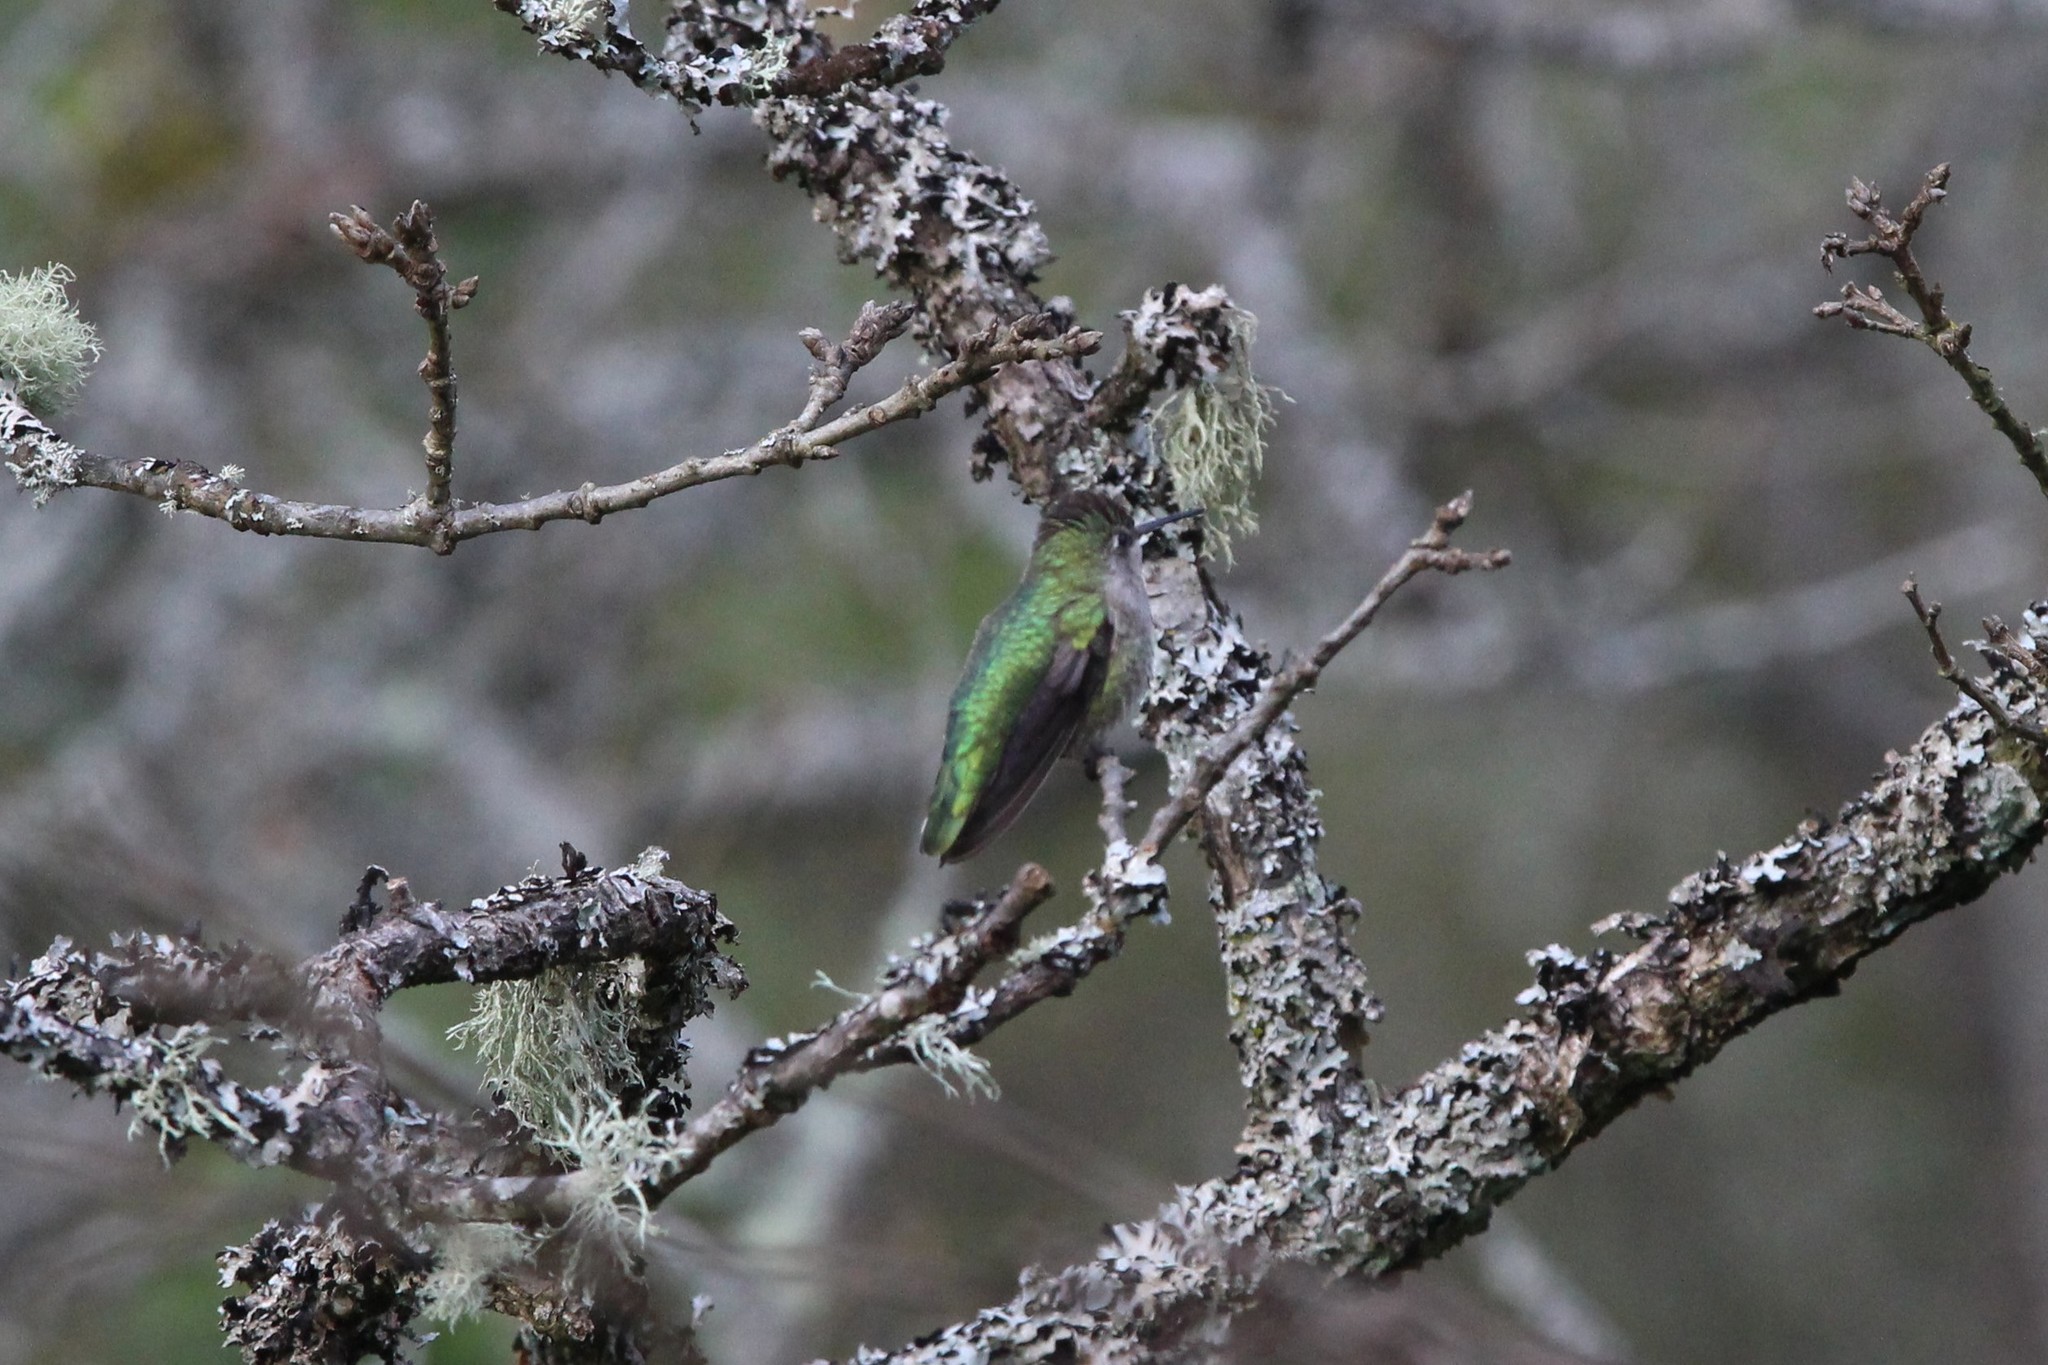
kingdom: Animalia
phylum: Chordata
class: Aves
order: Apodiformes
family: Trochilidae
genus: Calypte
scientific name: Calypte anna
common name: Anna's hummingbird
